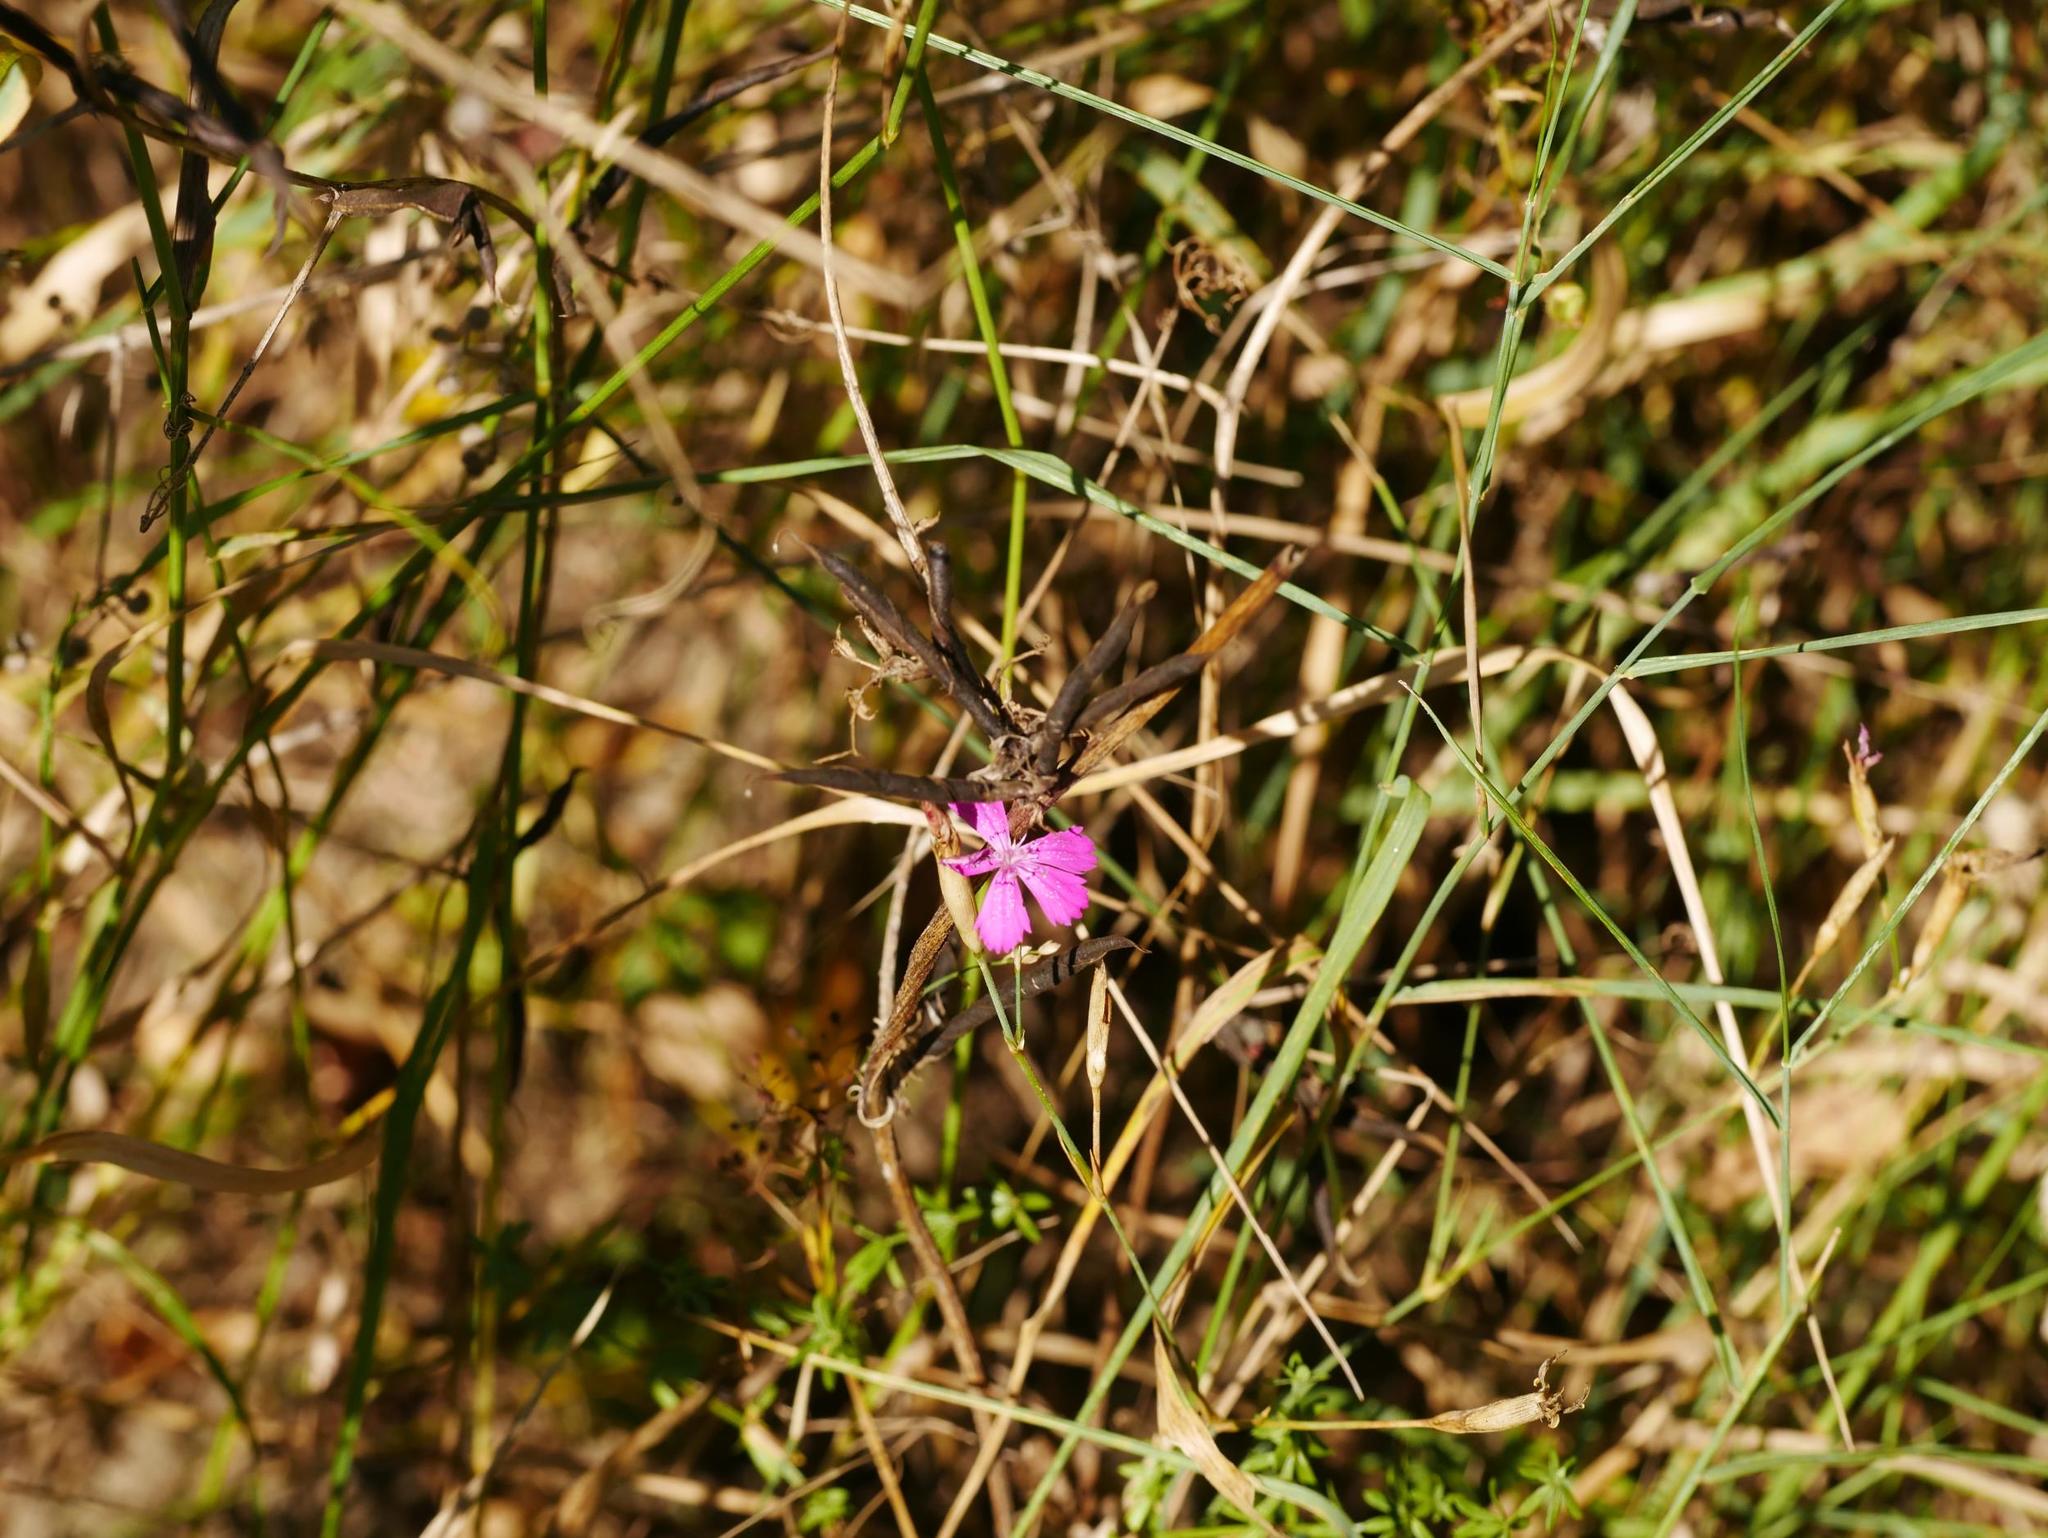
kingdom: Plantae
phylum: Tracheophyta
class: Magnoliopsida
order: Caryophyllales
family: Caryophyllaceae
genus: Dianthus
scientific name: Dianthus carthusianorum
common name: Carthusian pink
